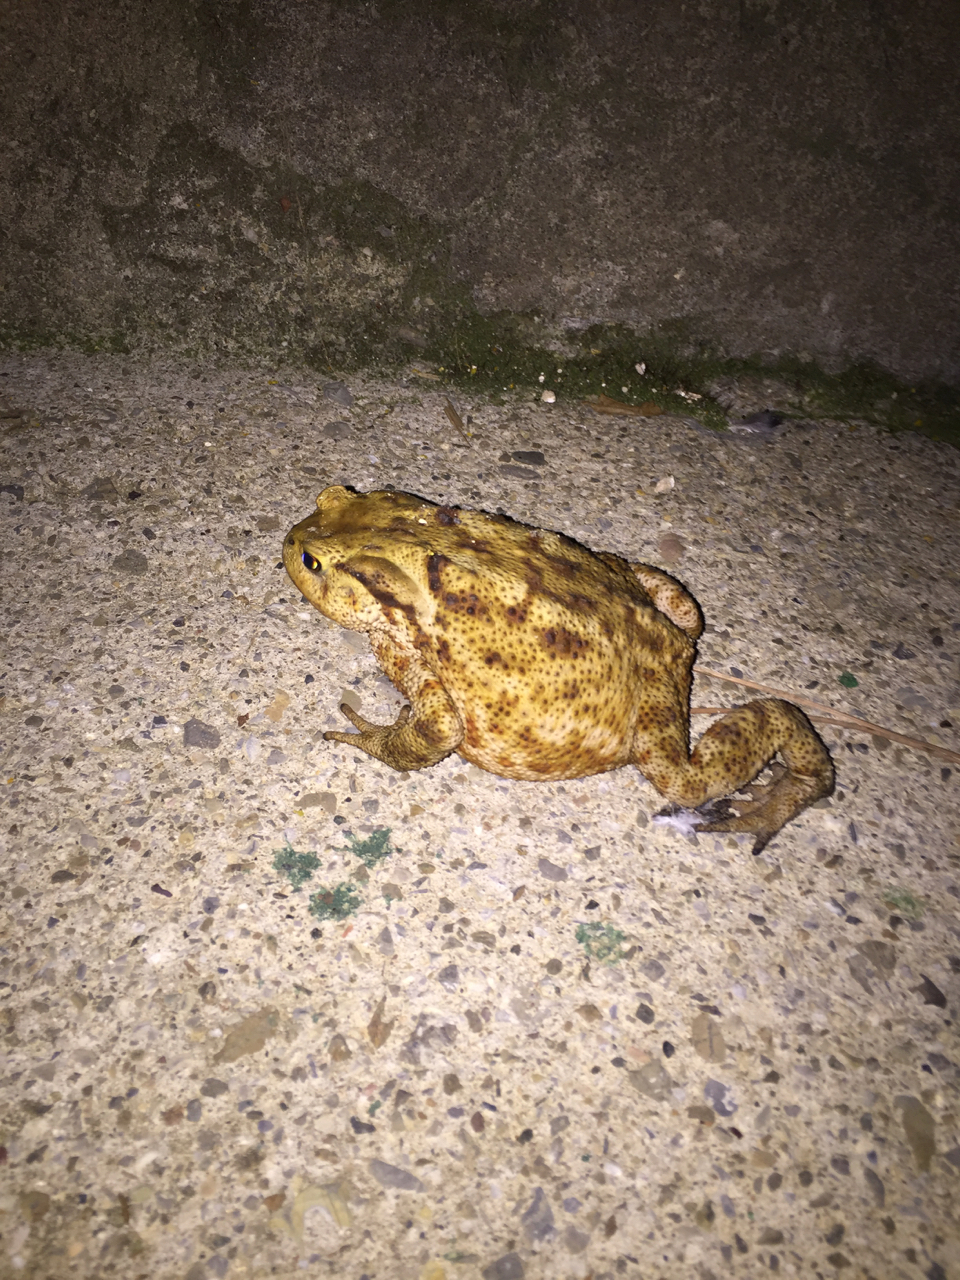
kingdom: Animalia
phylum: Chordata
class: Amphibia
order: Anura
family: Bufonidae
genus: Bufo
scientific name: Bufo bufo
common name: Common toad
